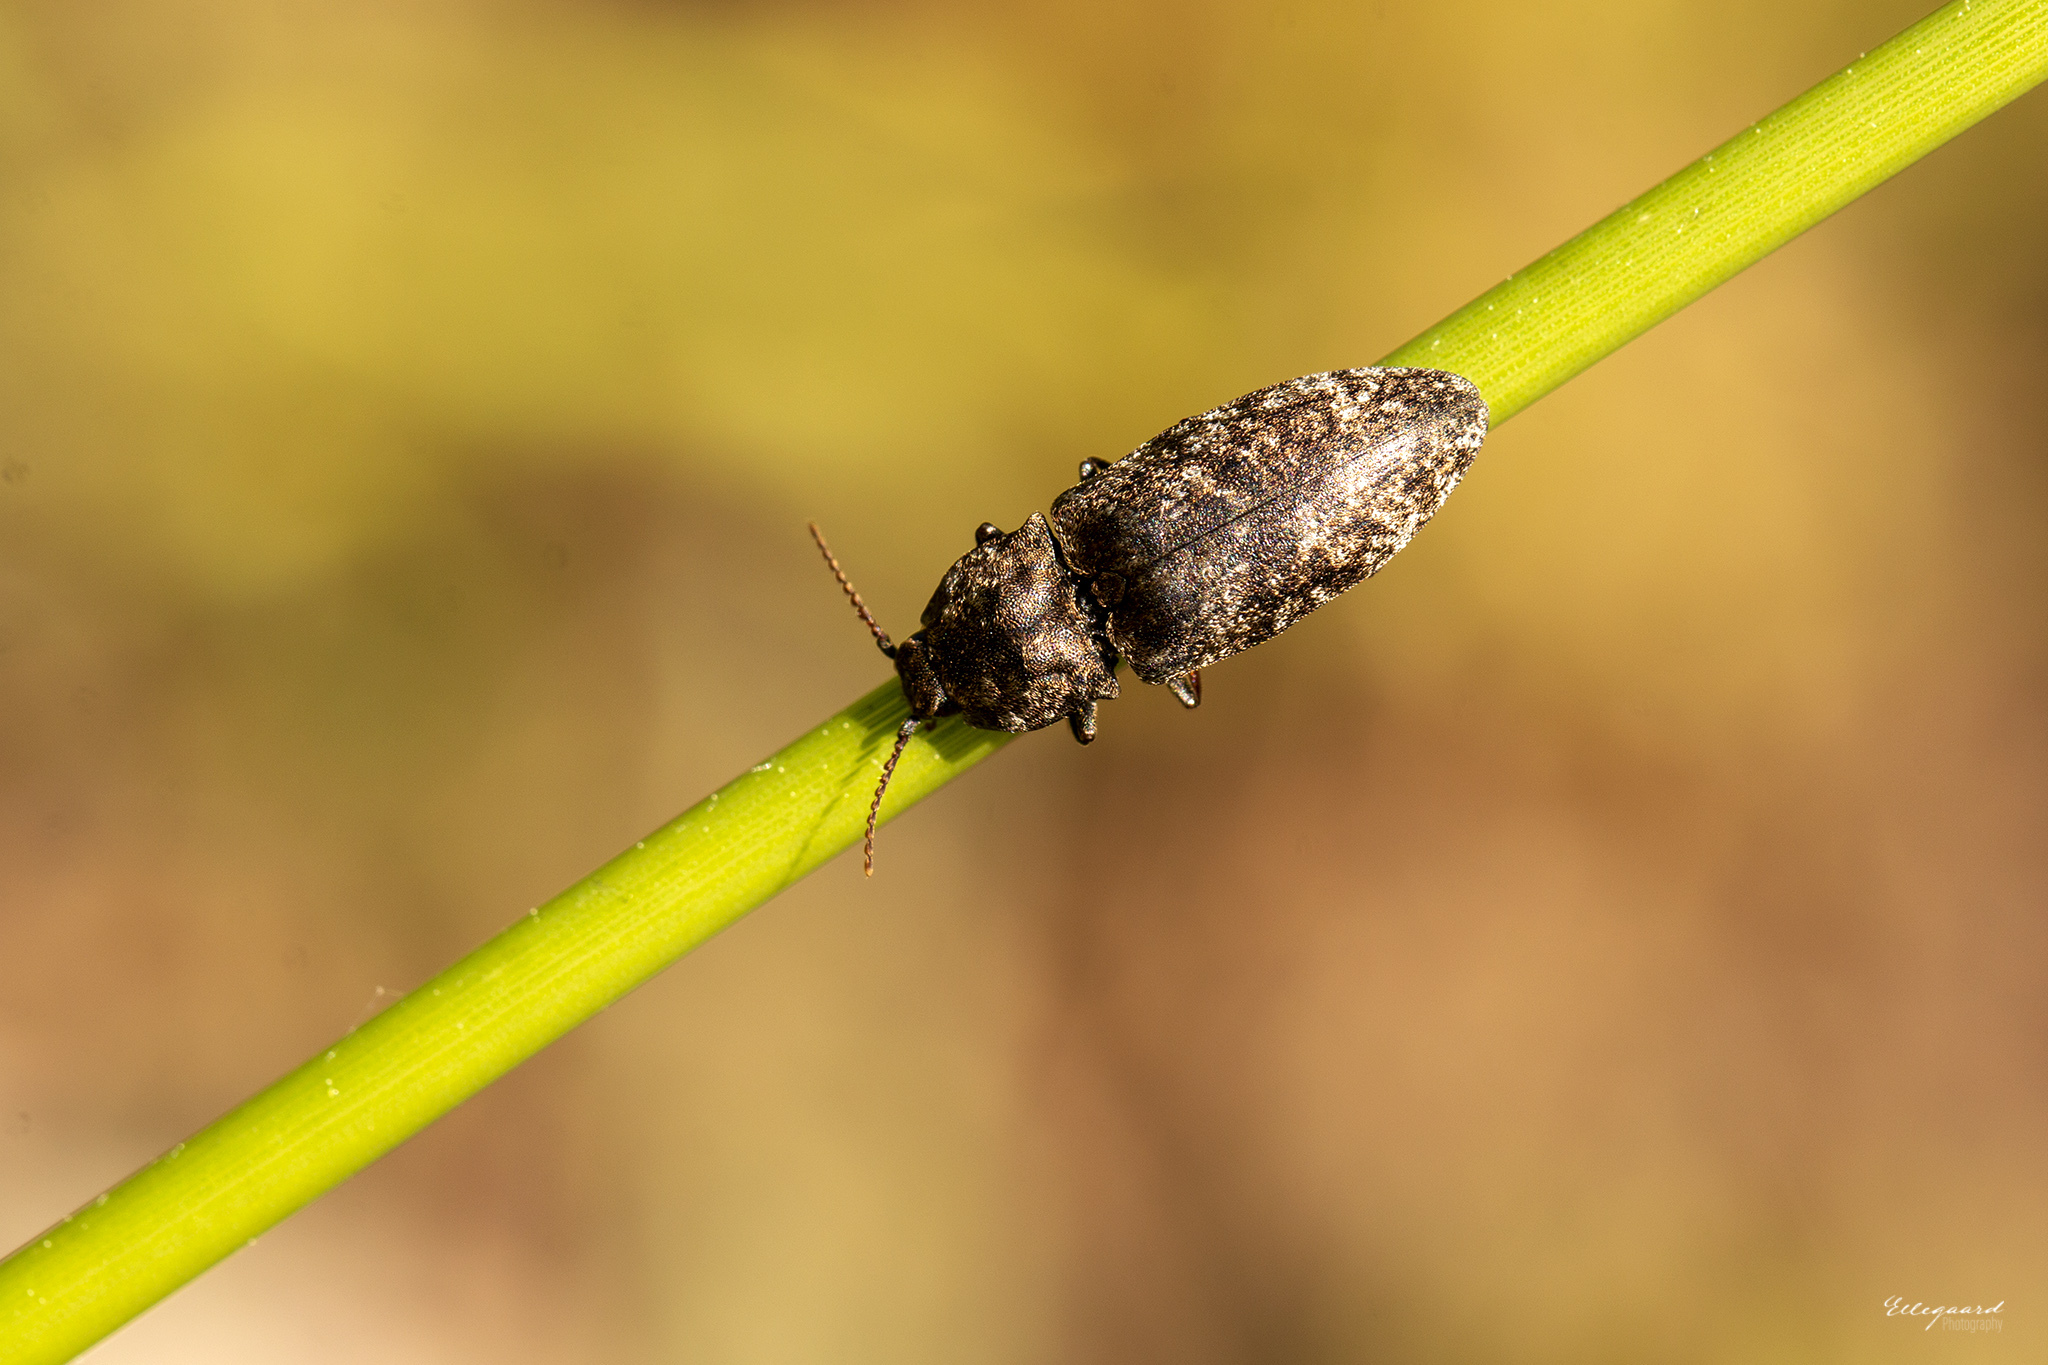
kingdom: Animalia
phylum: Arthropoda
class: Insecta
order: Coleoptera
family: Elateridae
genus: Agrypnus
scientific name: Agrypnus murinus
